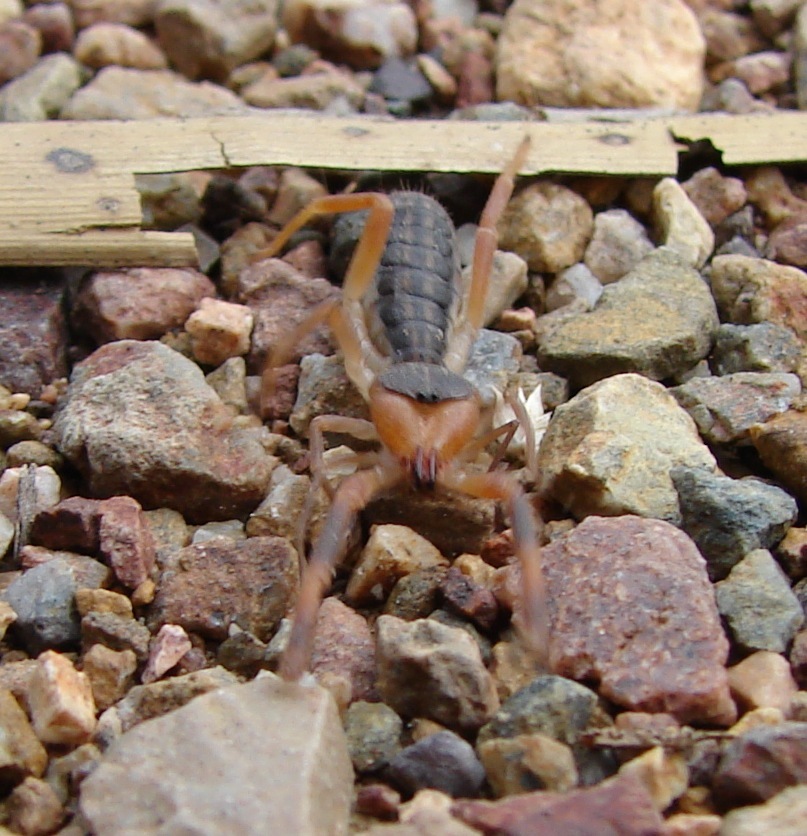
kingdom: Animalia
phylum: Arthropoda
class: Arachnida
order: Solifugae
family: Ammotrechidae
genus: Ammotrechula
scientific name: Ammotrechula boneti
